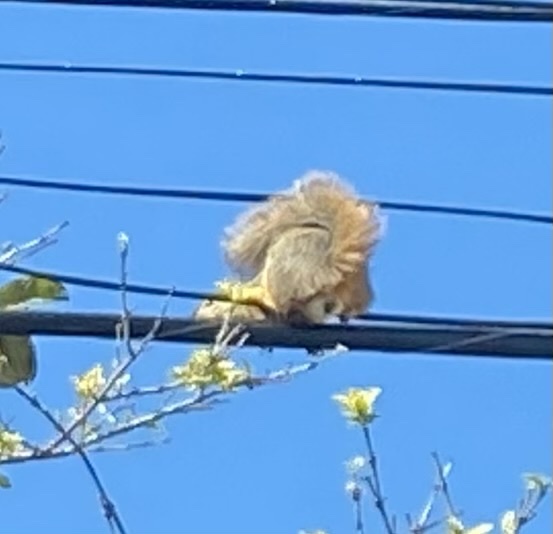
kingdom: Animalia
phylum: Chordata
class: Mammalia
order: Rodentia
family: Sciuridae
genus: Sciurus
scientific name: Sciurus niger
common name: Fox squirrel
